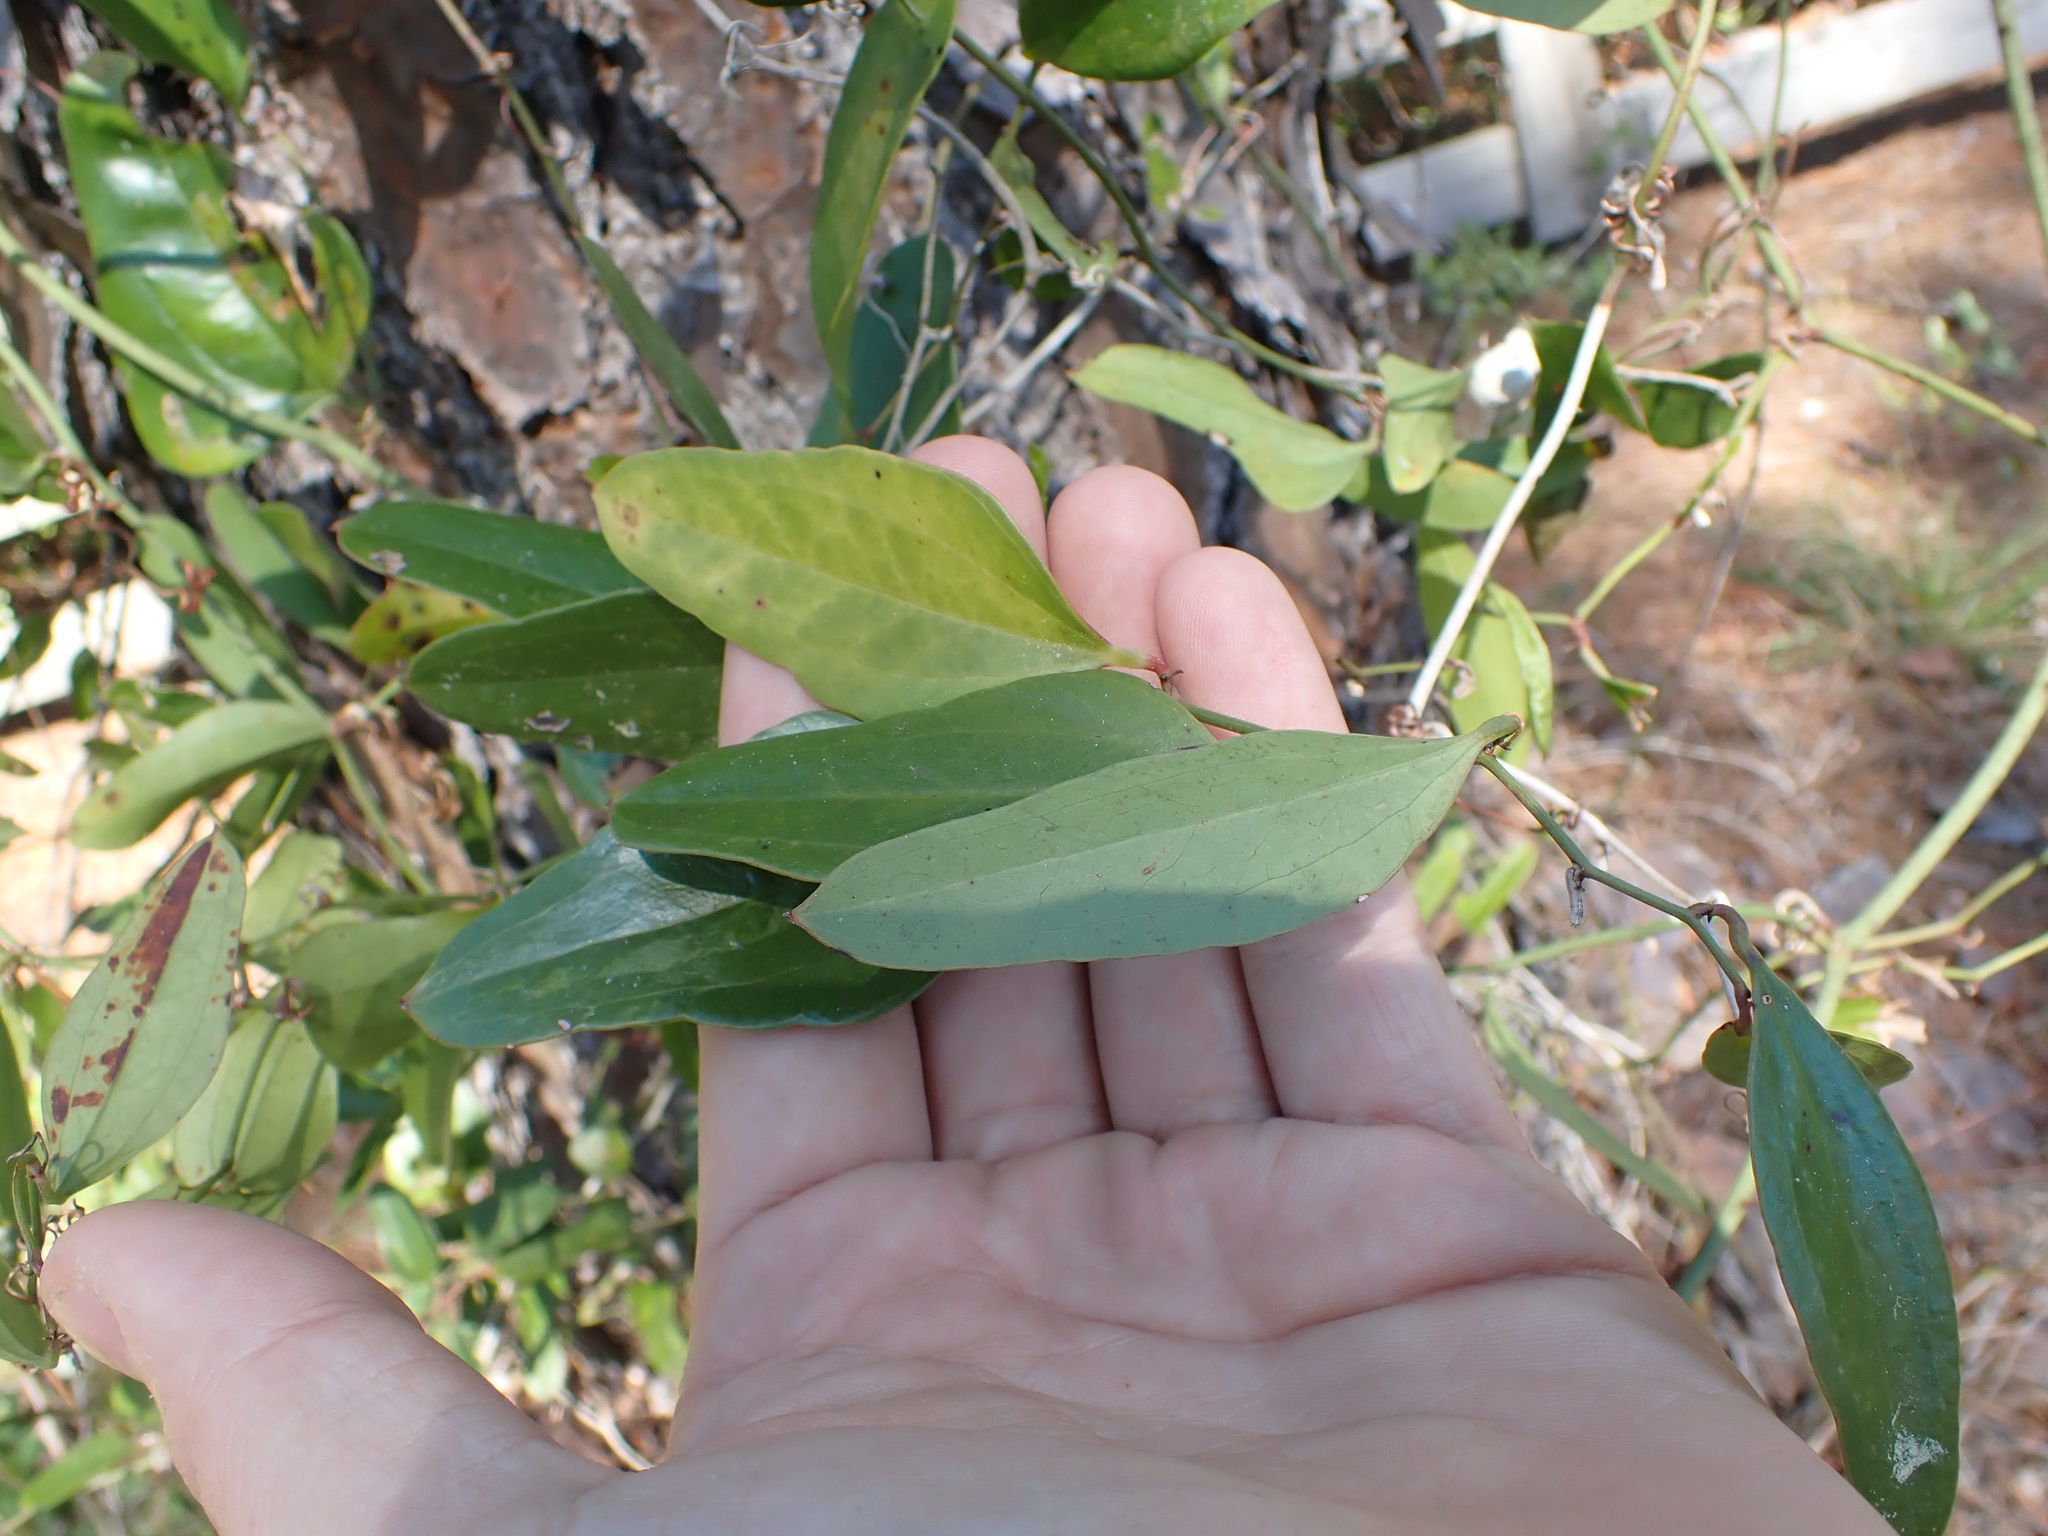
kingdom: Plantae
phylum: Tracheophyta
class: Liliopsida
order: Liliales
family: Smilacaceae
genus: Smilax
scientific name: Smilax auriculata
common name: Wild bamboo
